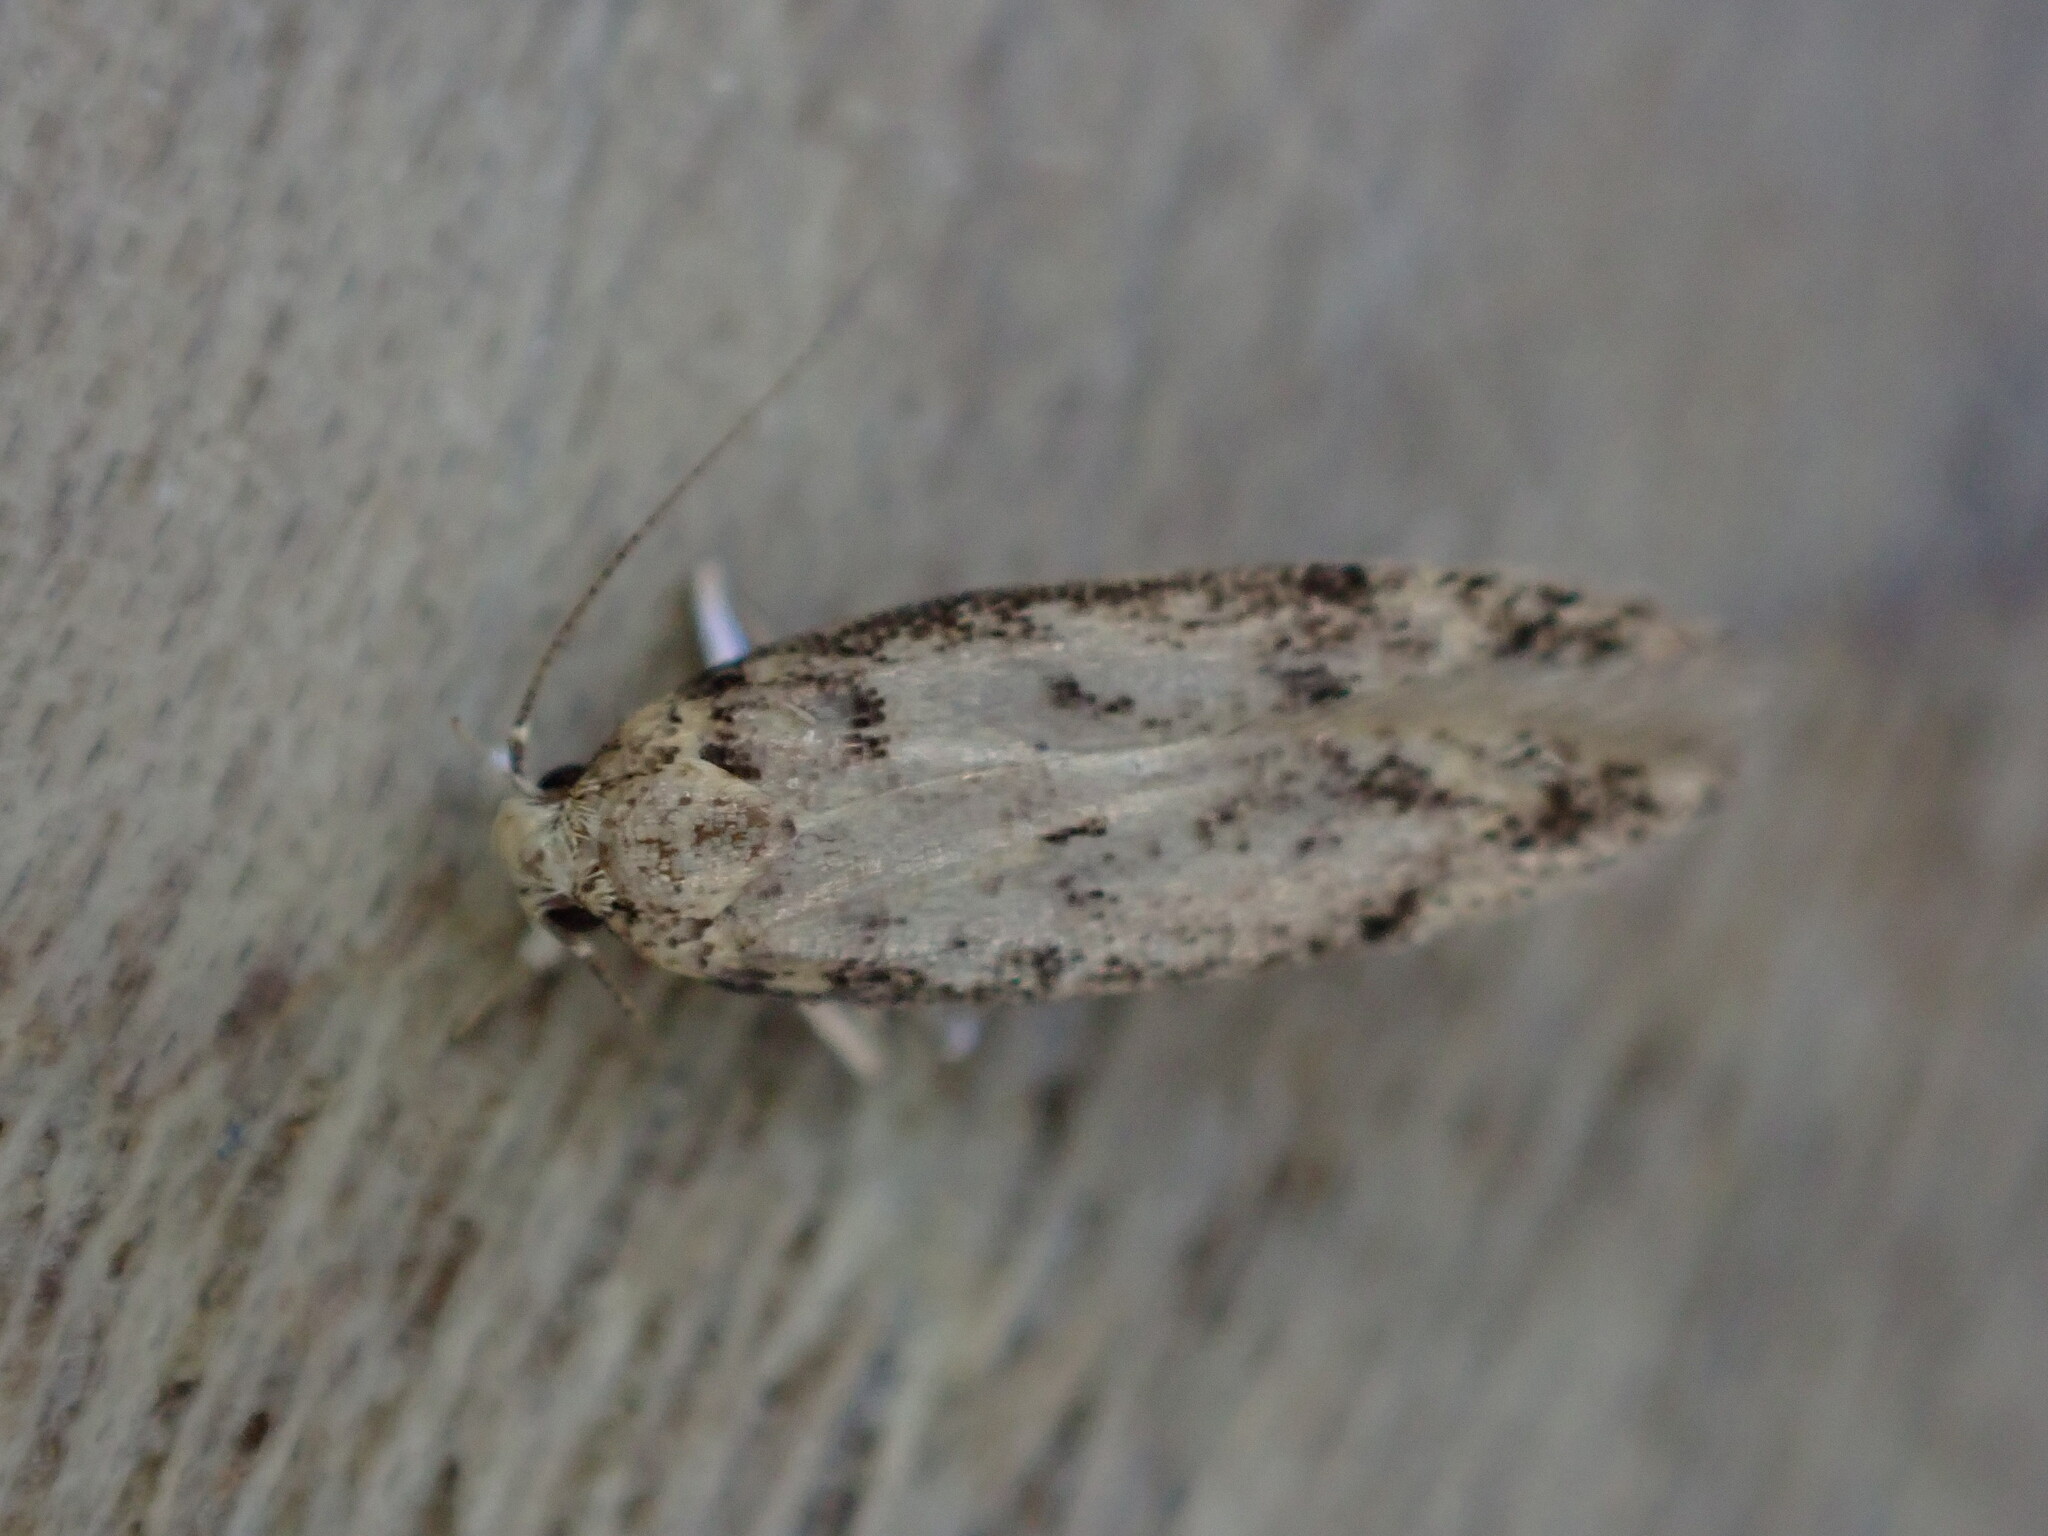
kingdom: Animalia
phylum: Arthropoda
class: Insecta
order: Lepidoptera
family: Gelechiidae
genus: Bryotropha
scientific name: Bryotropha domestica
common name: House groundling
